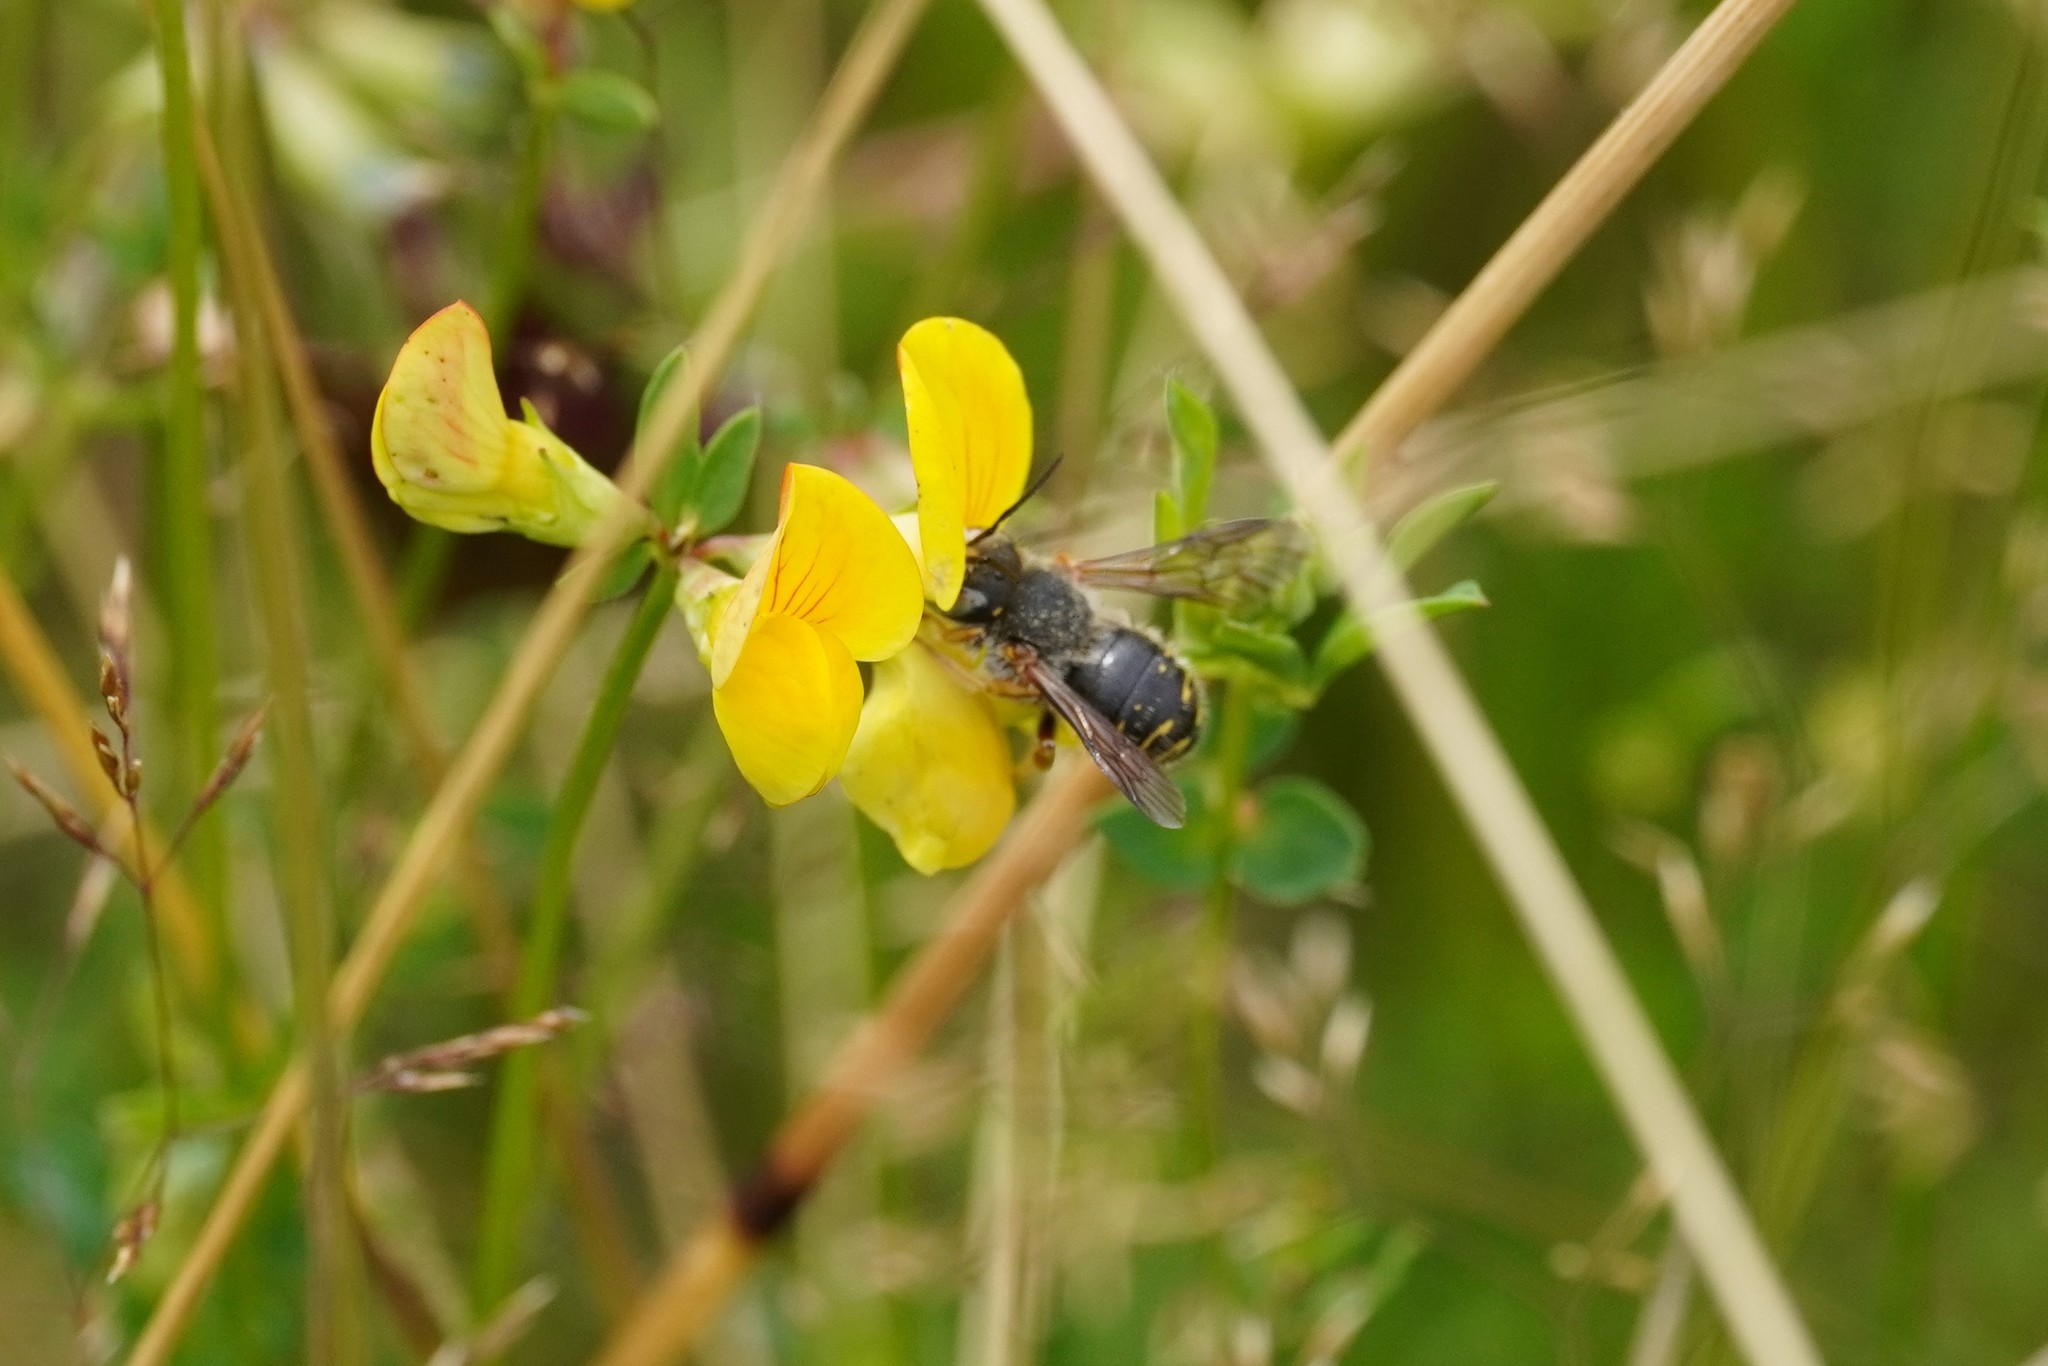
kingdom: Animalia
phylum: Arthropoda
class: Insecta
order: Hymenoptera
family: Megachilidae
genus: Anthidium
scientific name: Anthidium oblongatum
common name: Oblong wool carder bee
